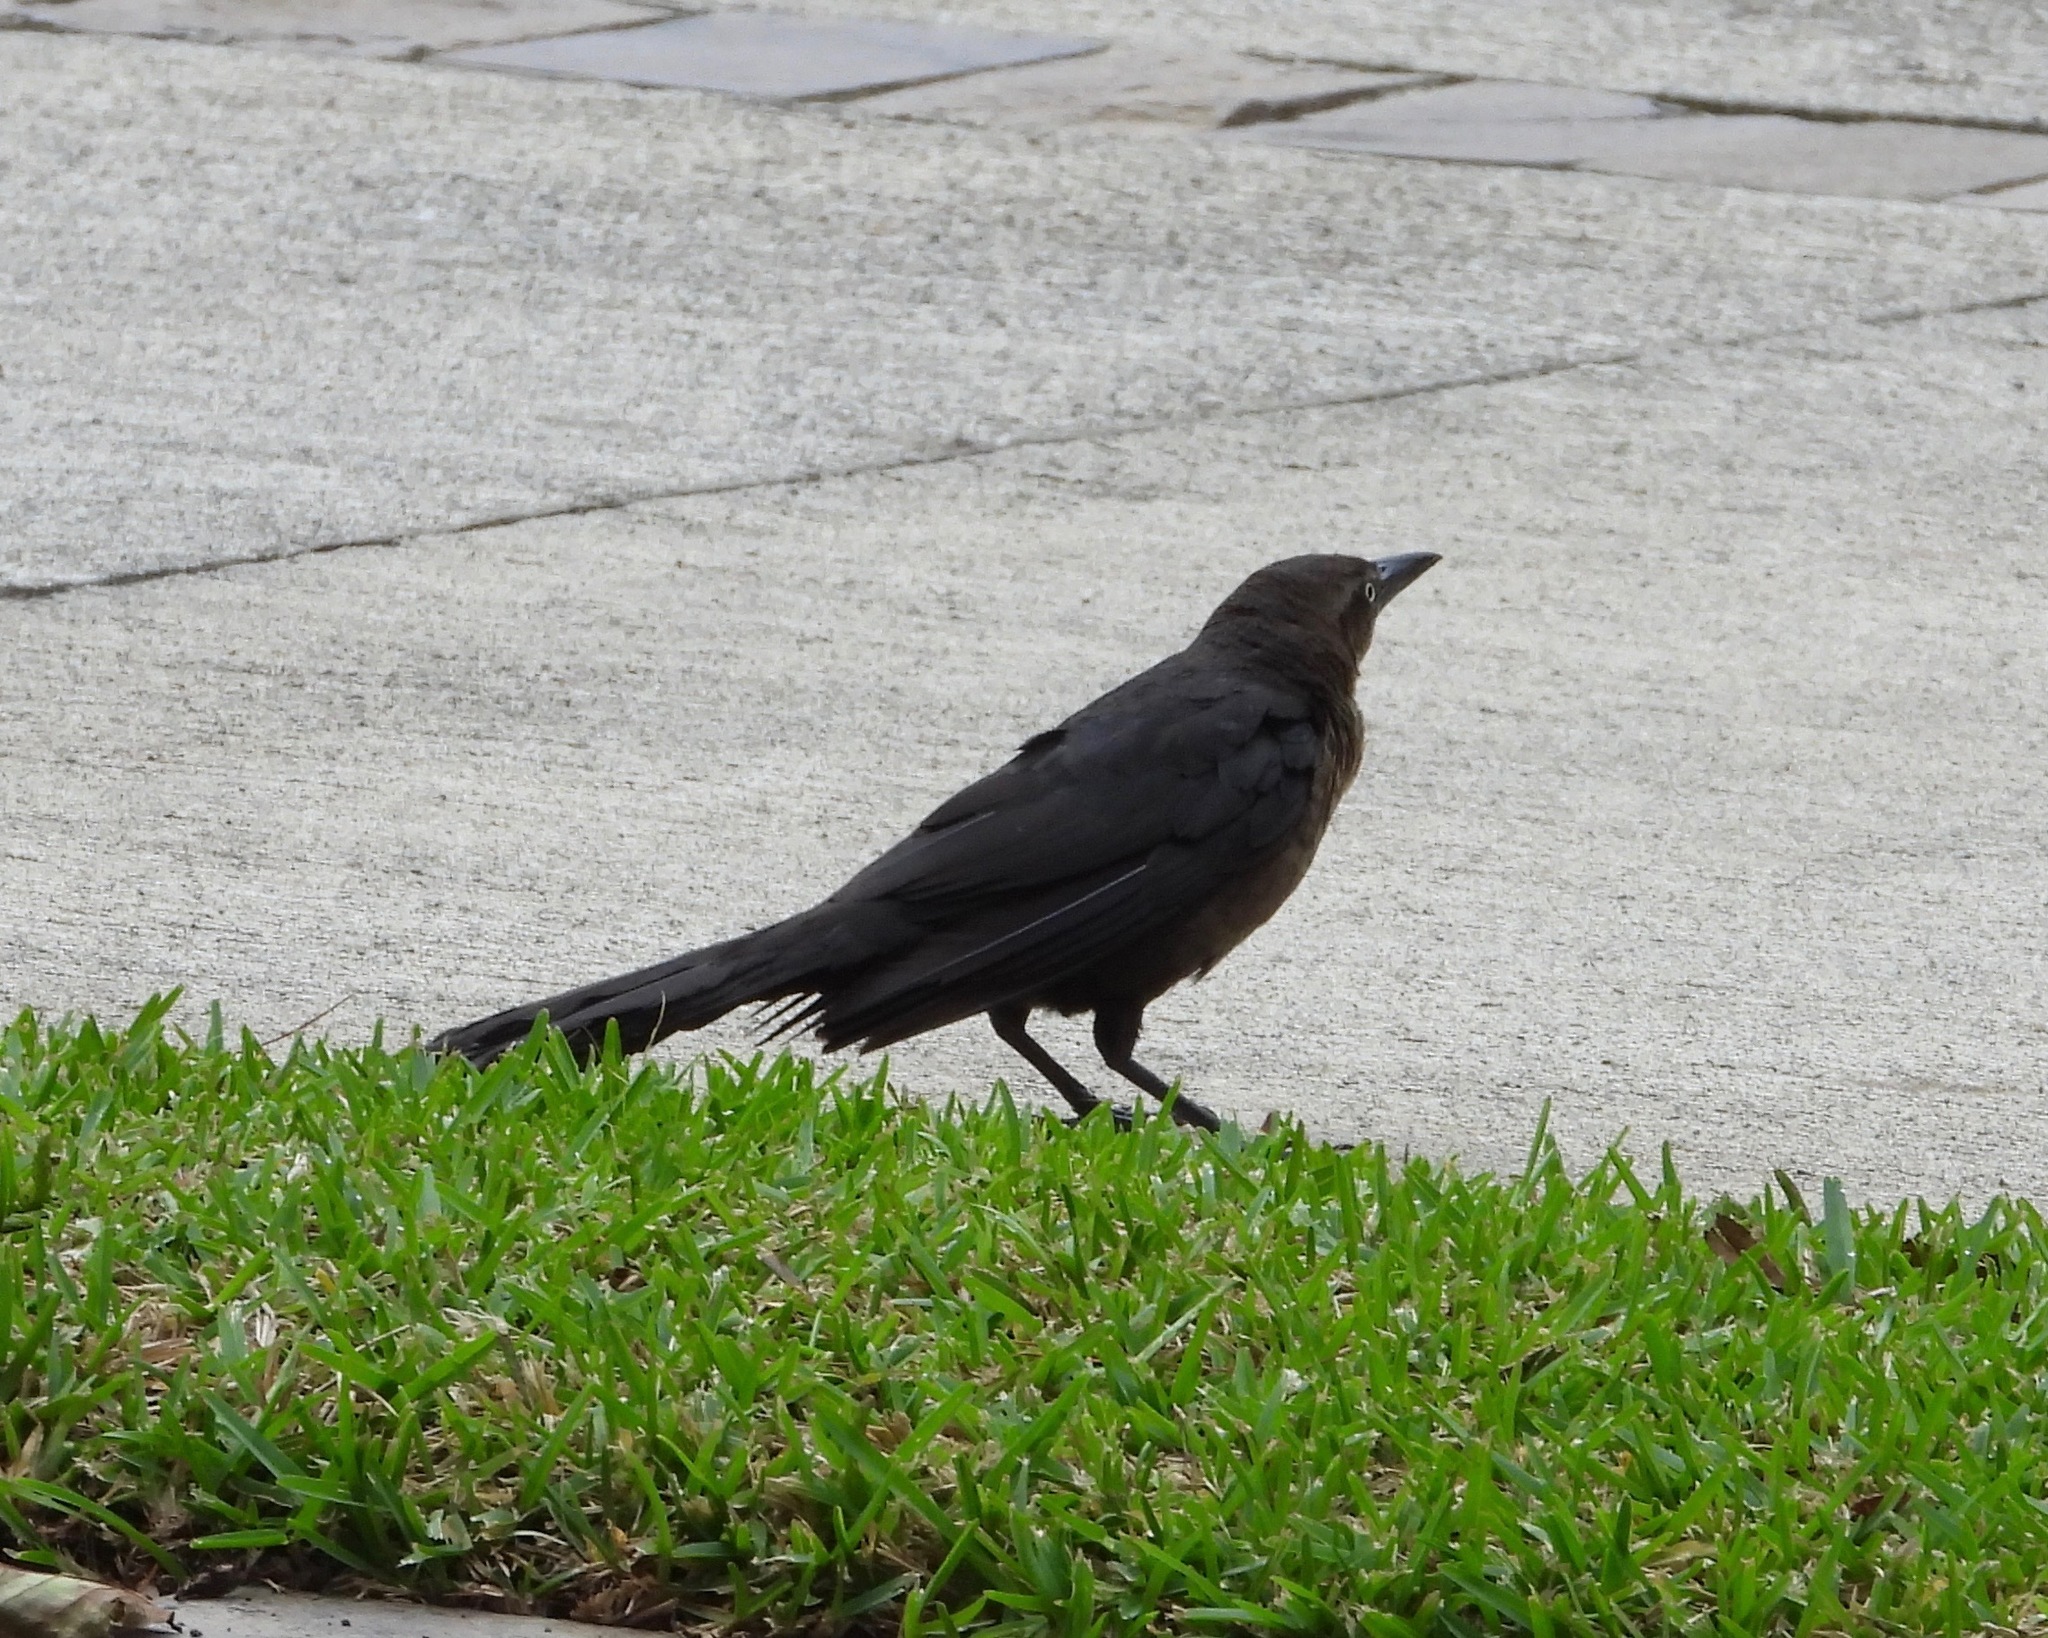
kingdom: Animalia
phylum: Chordata
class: Aves
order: Passeriformes
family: Icteridae
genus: Quiscalus
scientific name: Quiscalus mexicanus
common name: Great-tailed grackle
